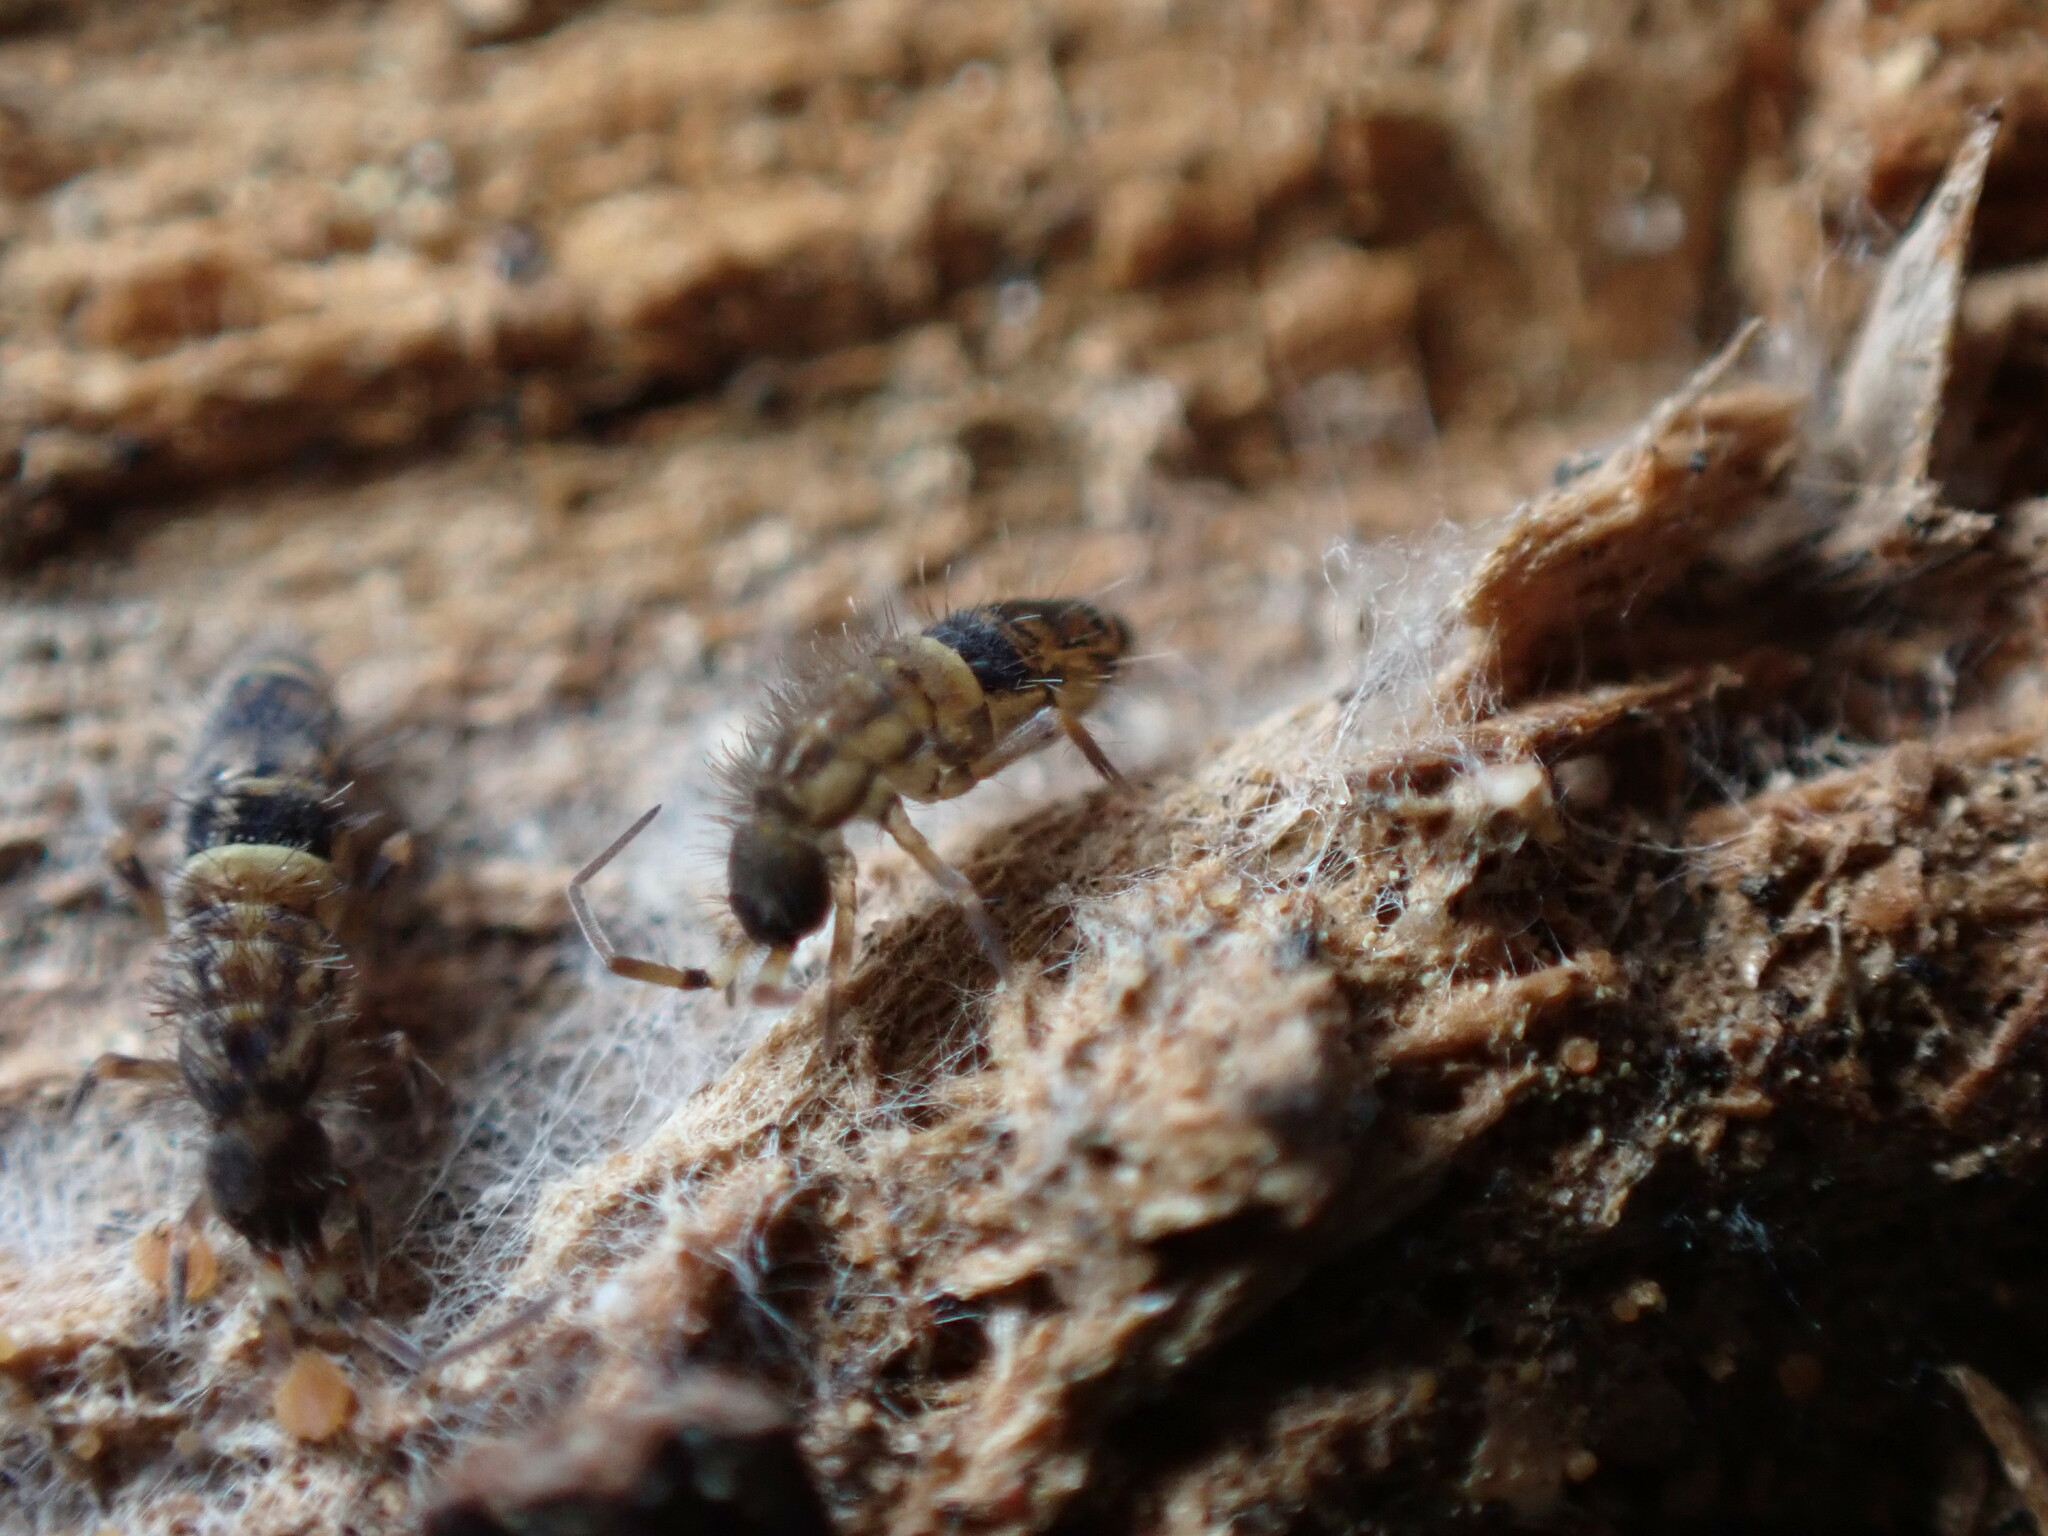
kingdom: Animalia
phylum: Arthropoda
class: Collembola
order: Entomobryomorpha
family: Orchesellidae
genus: Orchesella
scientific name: Orchesella cincta
